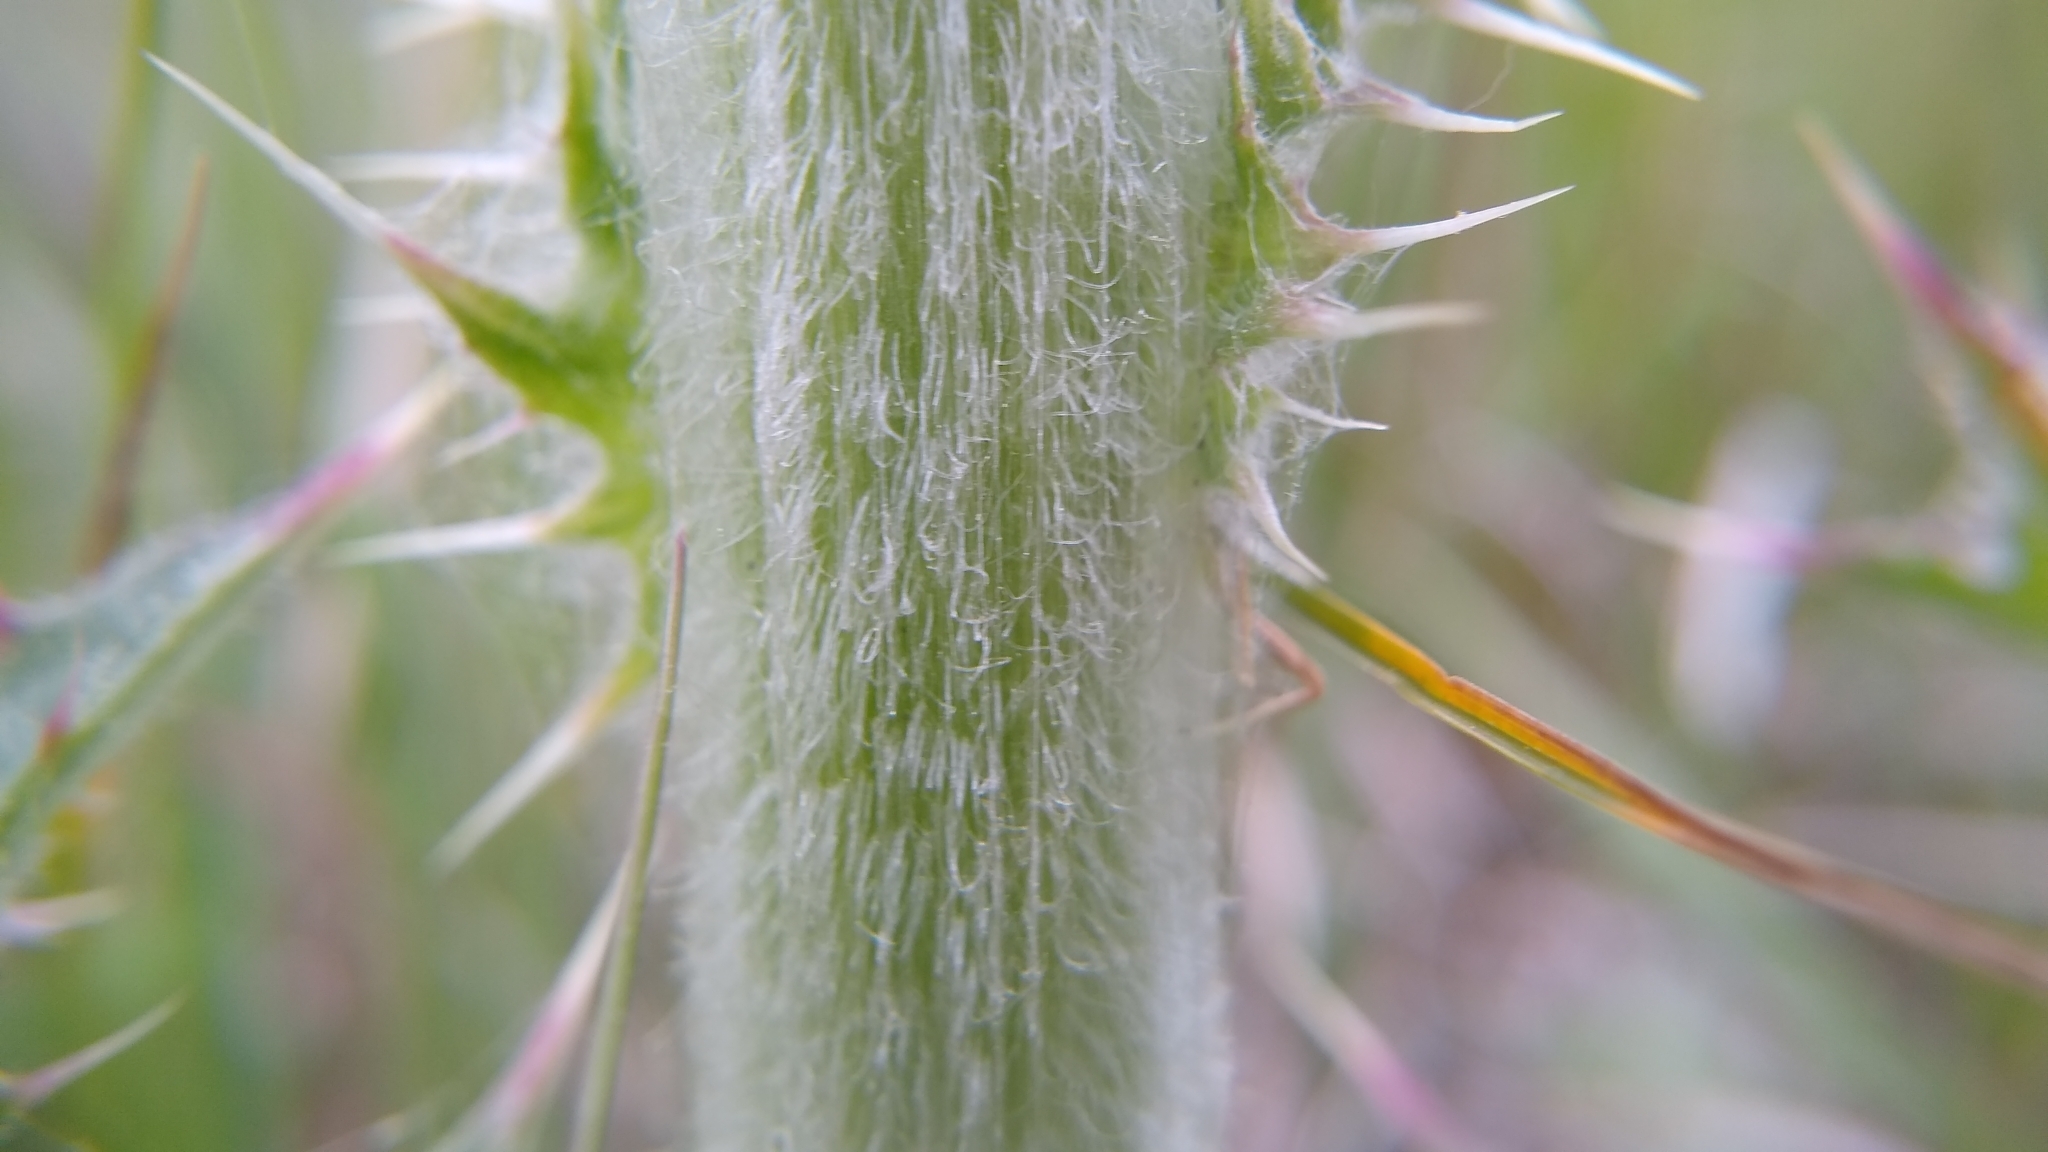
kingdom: Plantae
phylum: Tracheophyta
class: Magnoliopsida
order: Asterales
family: Asteraceae
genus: Cirsium
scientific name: Cirsium horridulum
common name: Bristly thistle
